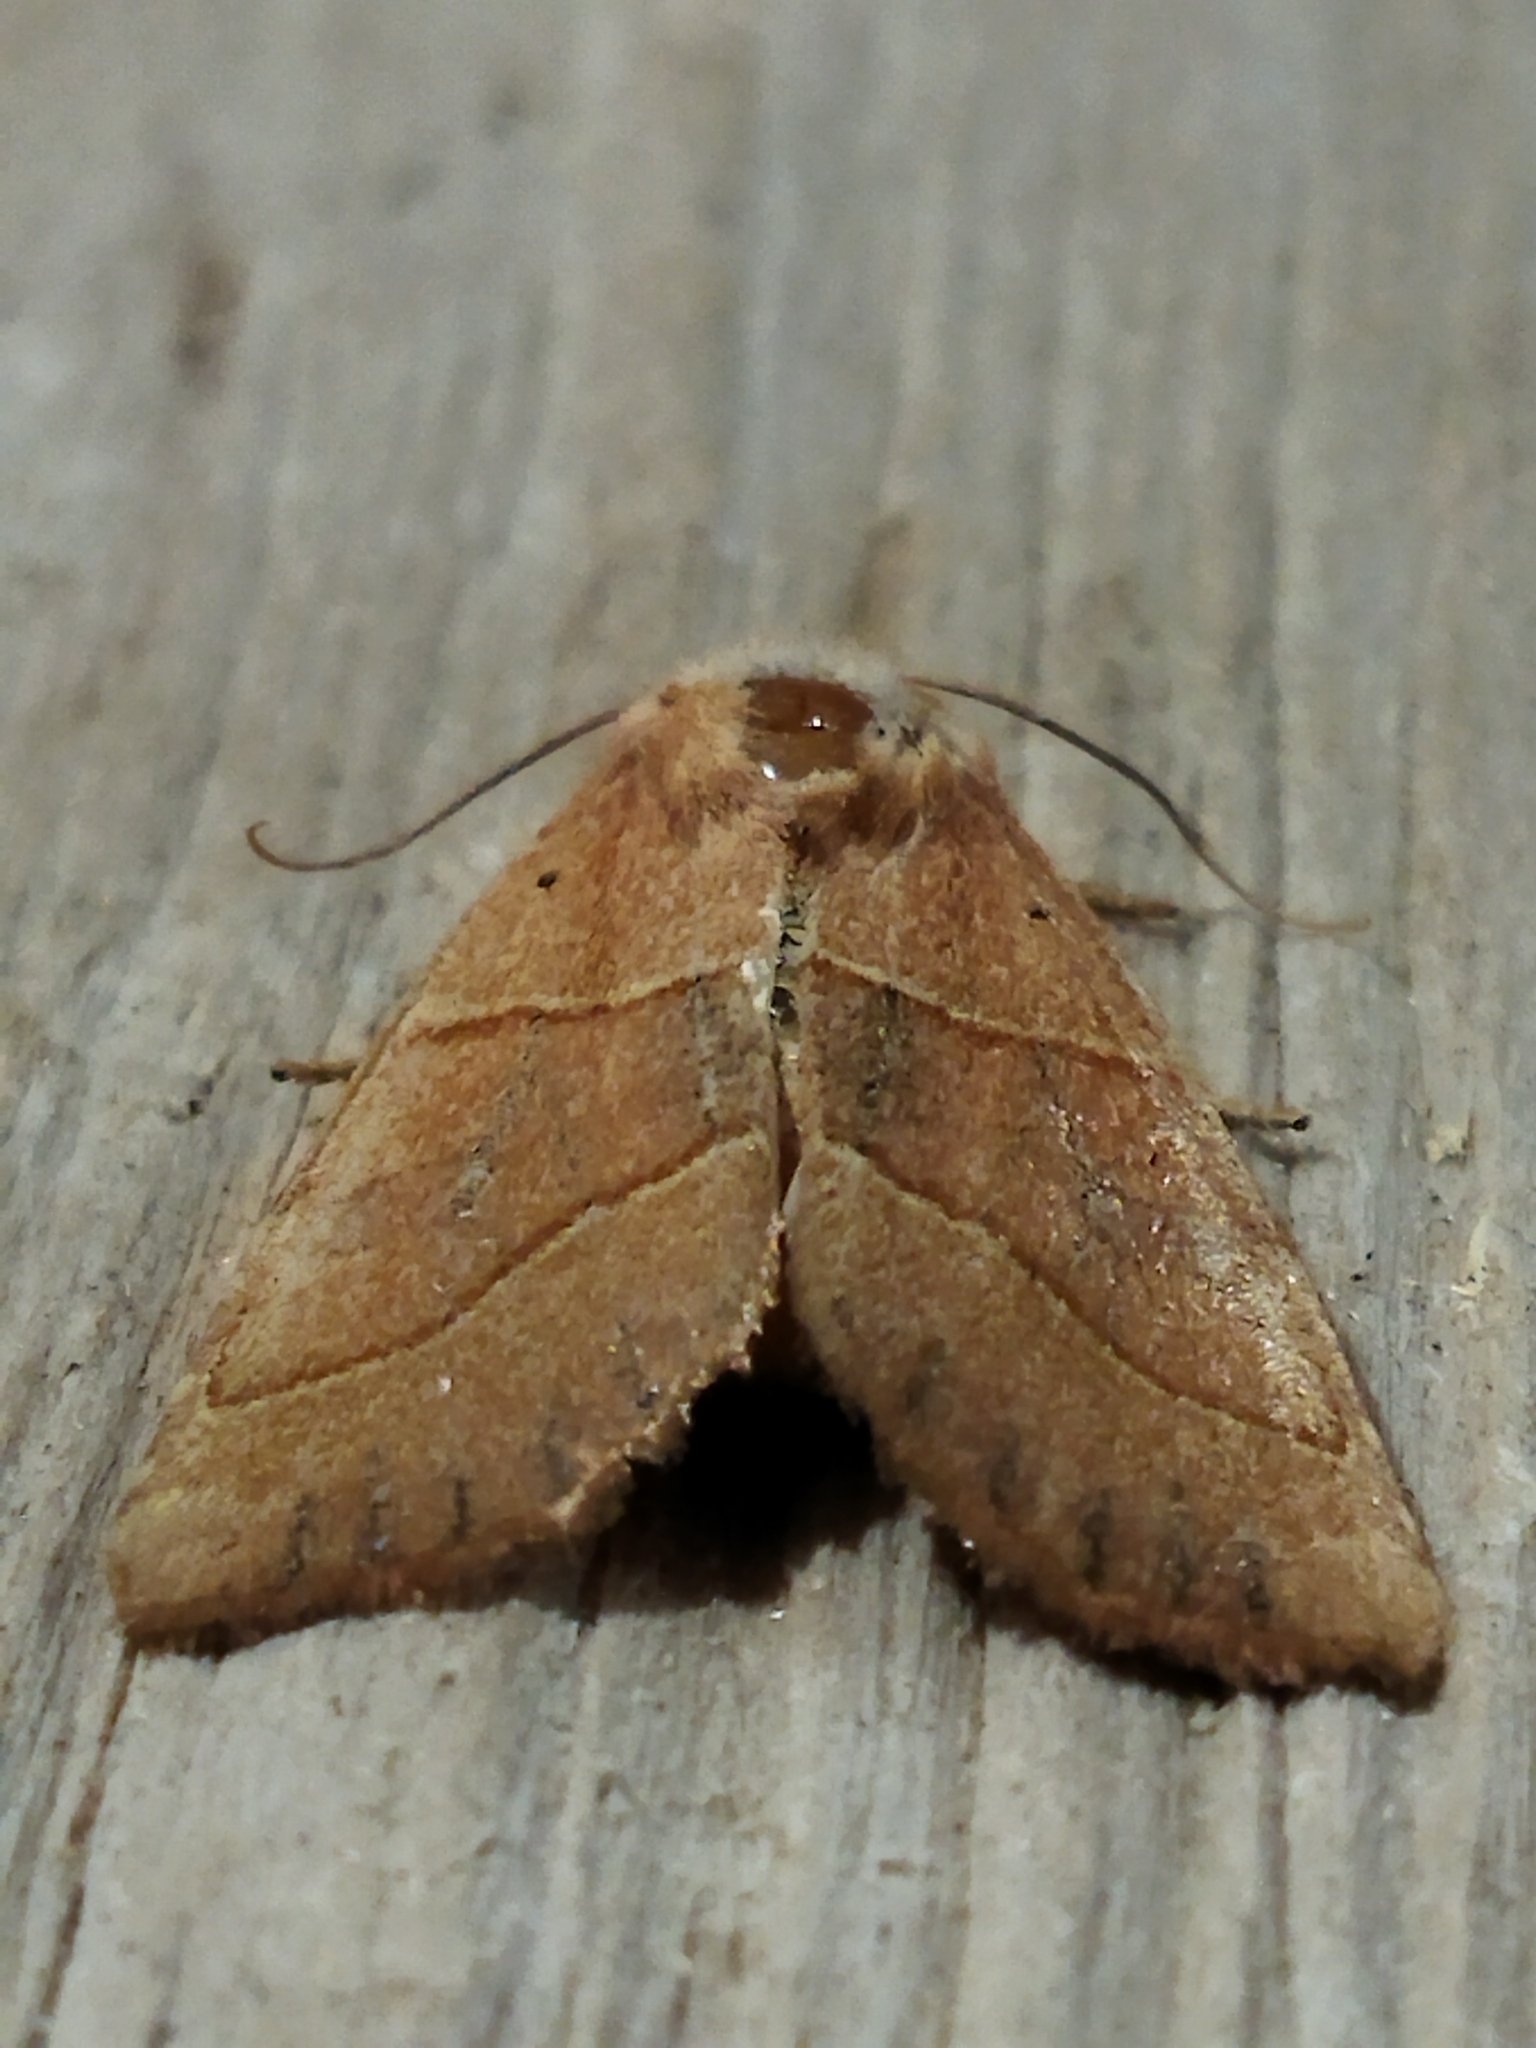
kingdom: Animalia
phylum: Arthropoda
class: Insecta
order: Lepidoptera
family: Noctuidae
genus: Atethmia
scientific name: Atethmia centrago
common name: Centre-barred sallow
